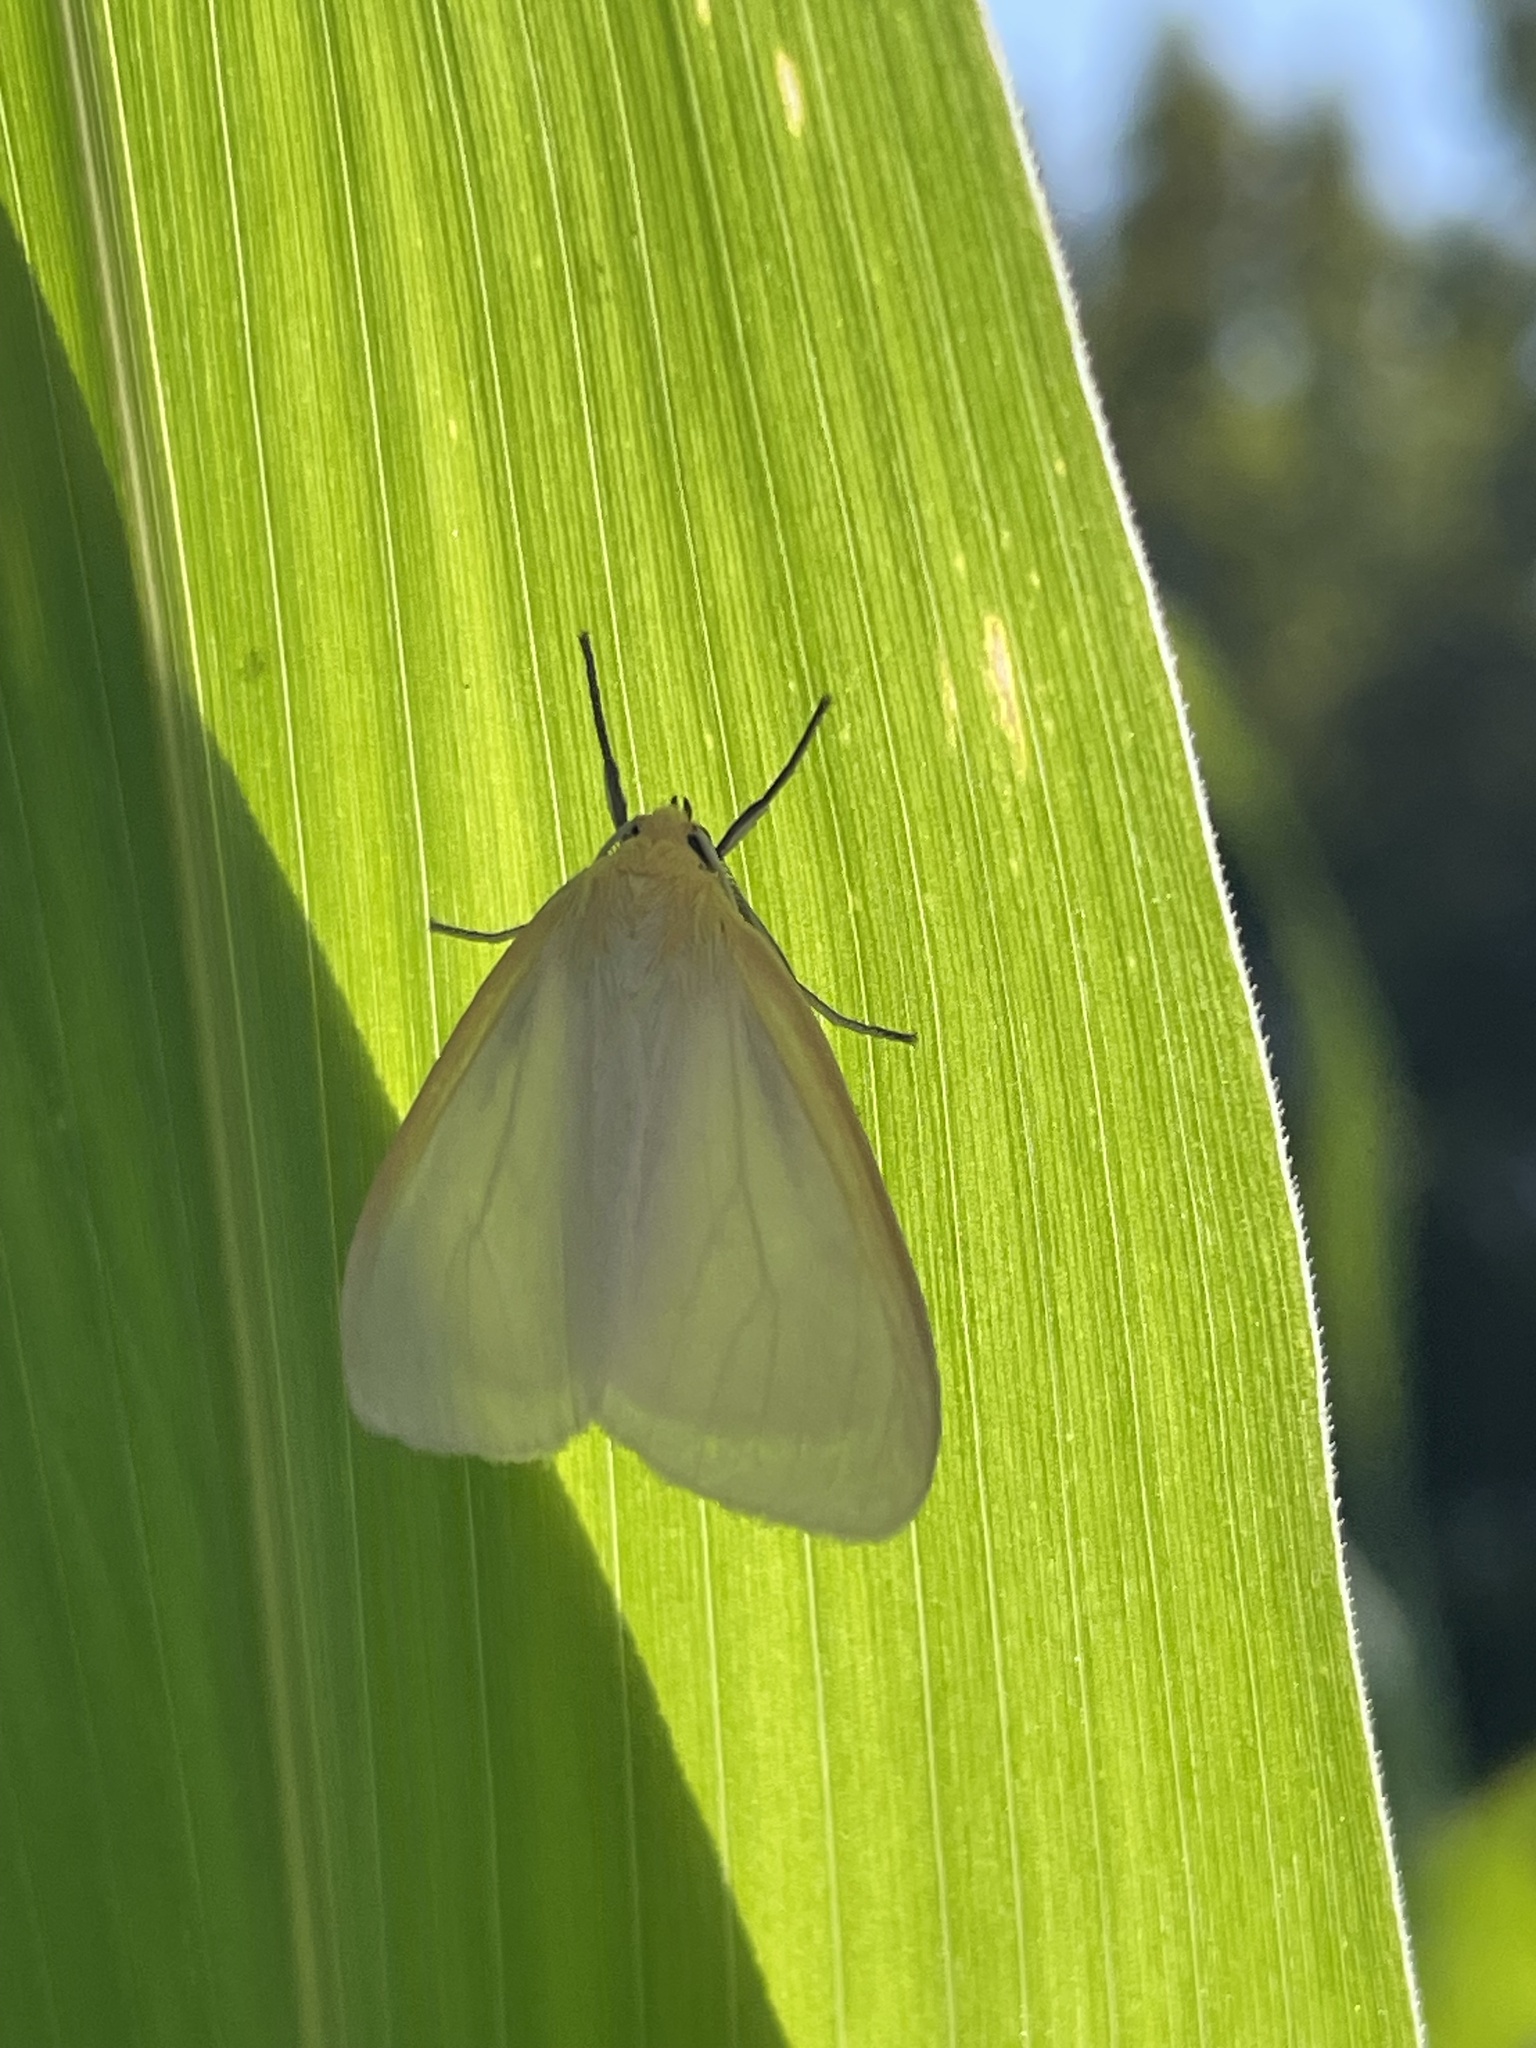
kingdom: Animalia
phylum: Arthropoda
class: Insecta
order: Lepidoptera
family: Erebidae
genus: Cycnia
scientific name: Cycnia tenera
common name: Delicate cycnia moth
